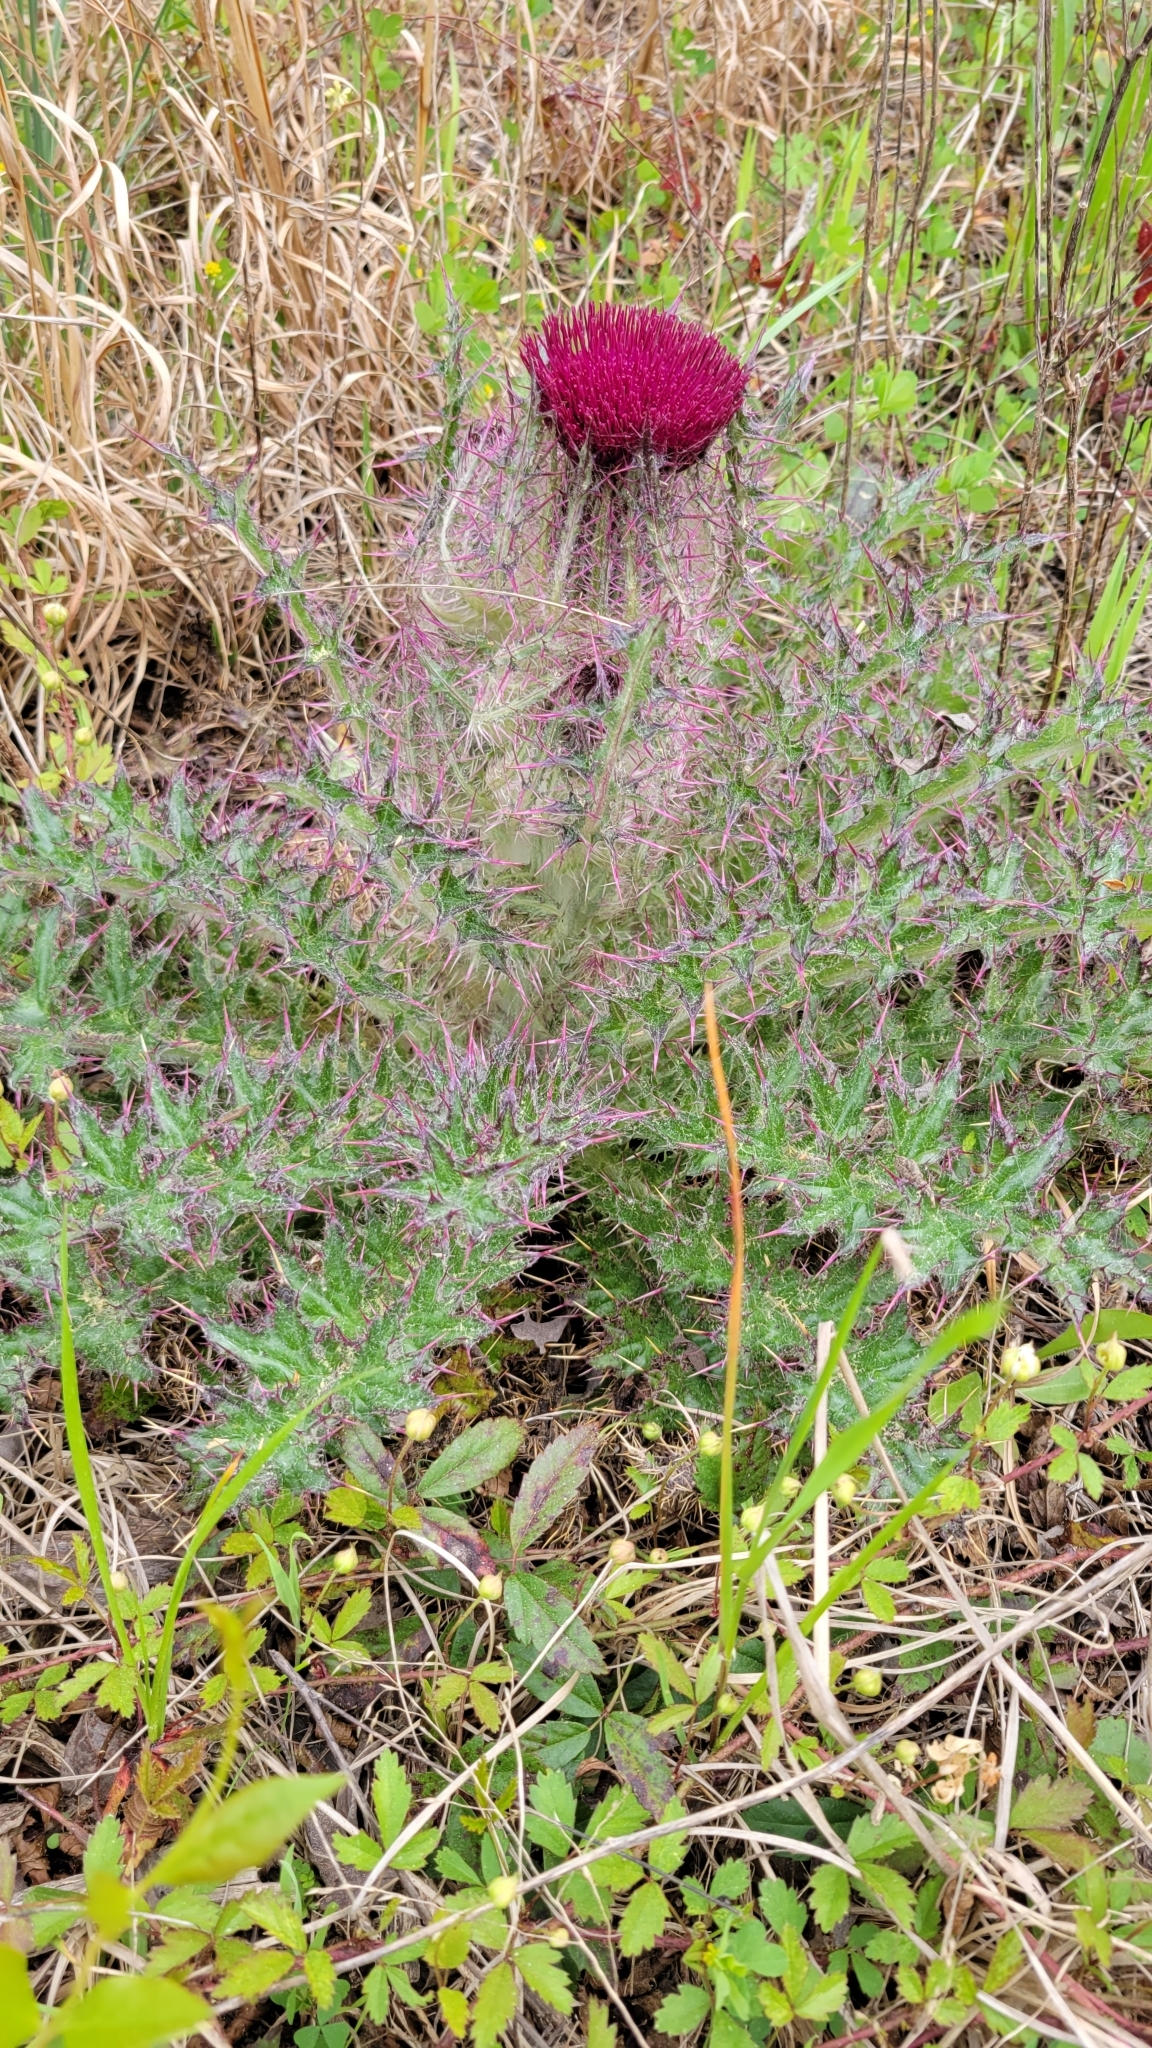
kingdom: Plantae
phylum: Tracheophyta
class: Magnoliopsida
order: Asterales
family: Asteraceae
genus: Cirsium
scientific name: Cirsium horridulum
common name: Bristly thistle
